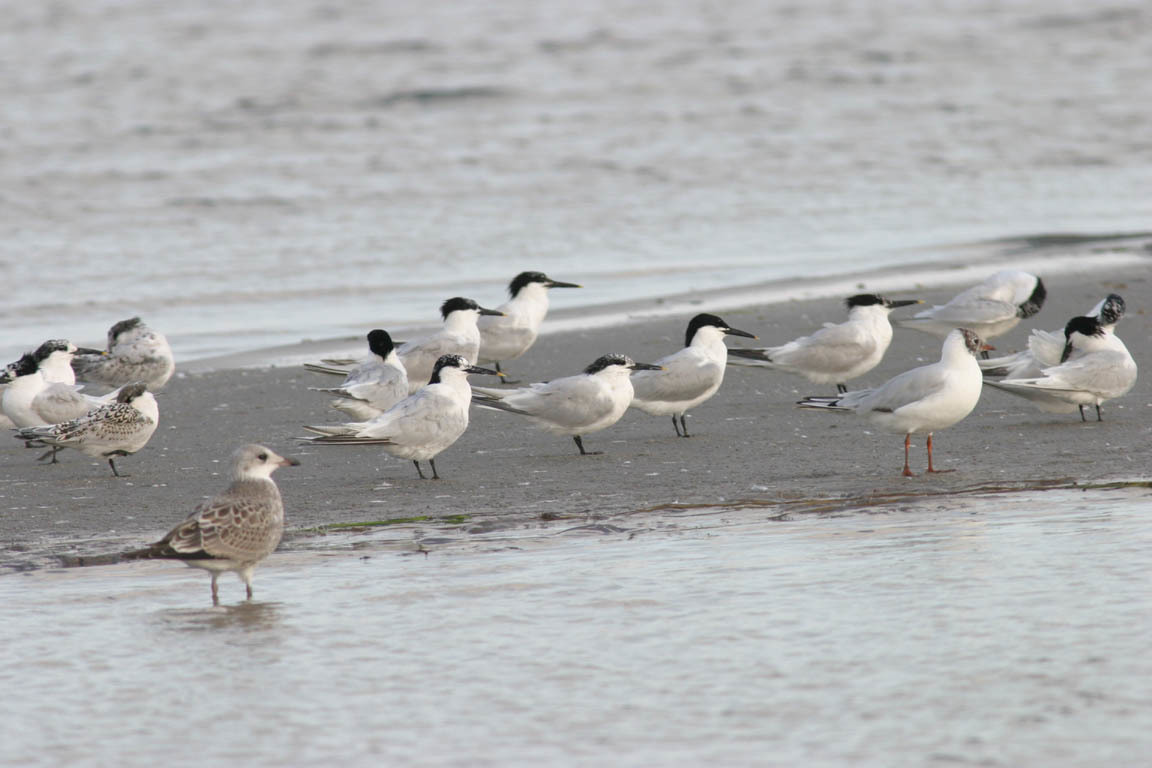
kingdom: Animalia
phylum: Chordata
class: Aves
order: Charadriiformes
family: Laridae
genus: Thalasseus
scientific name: Thalasseus sandvicensis
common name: Sandwich tern
